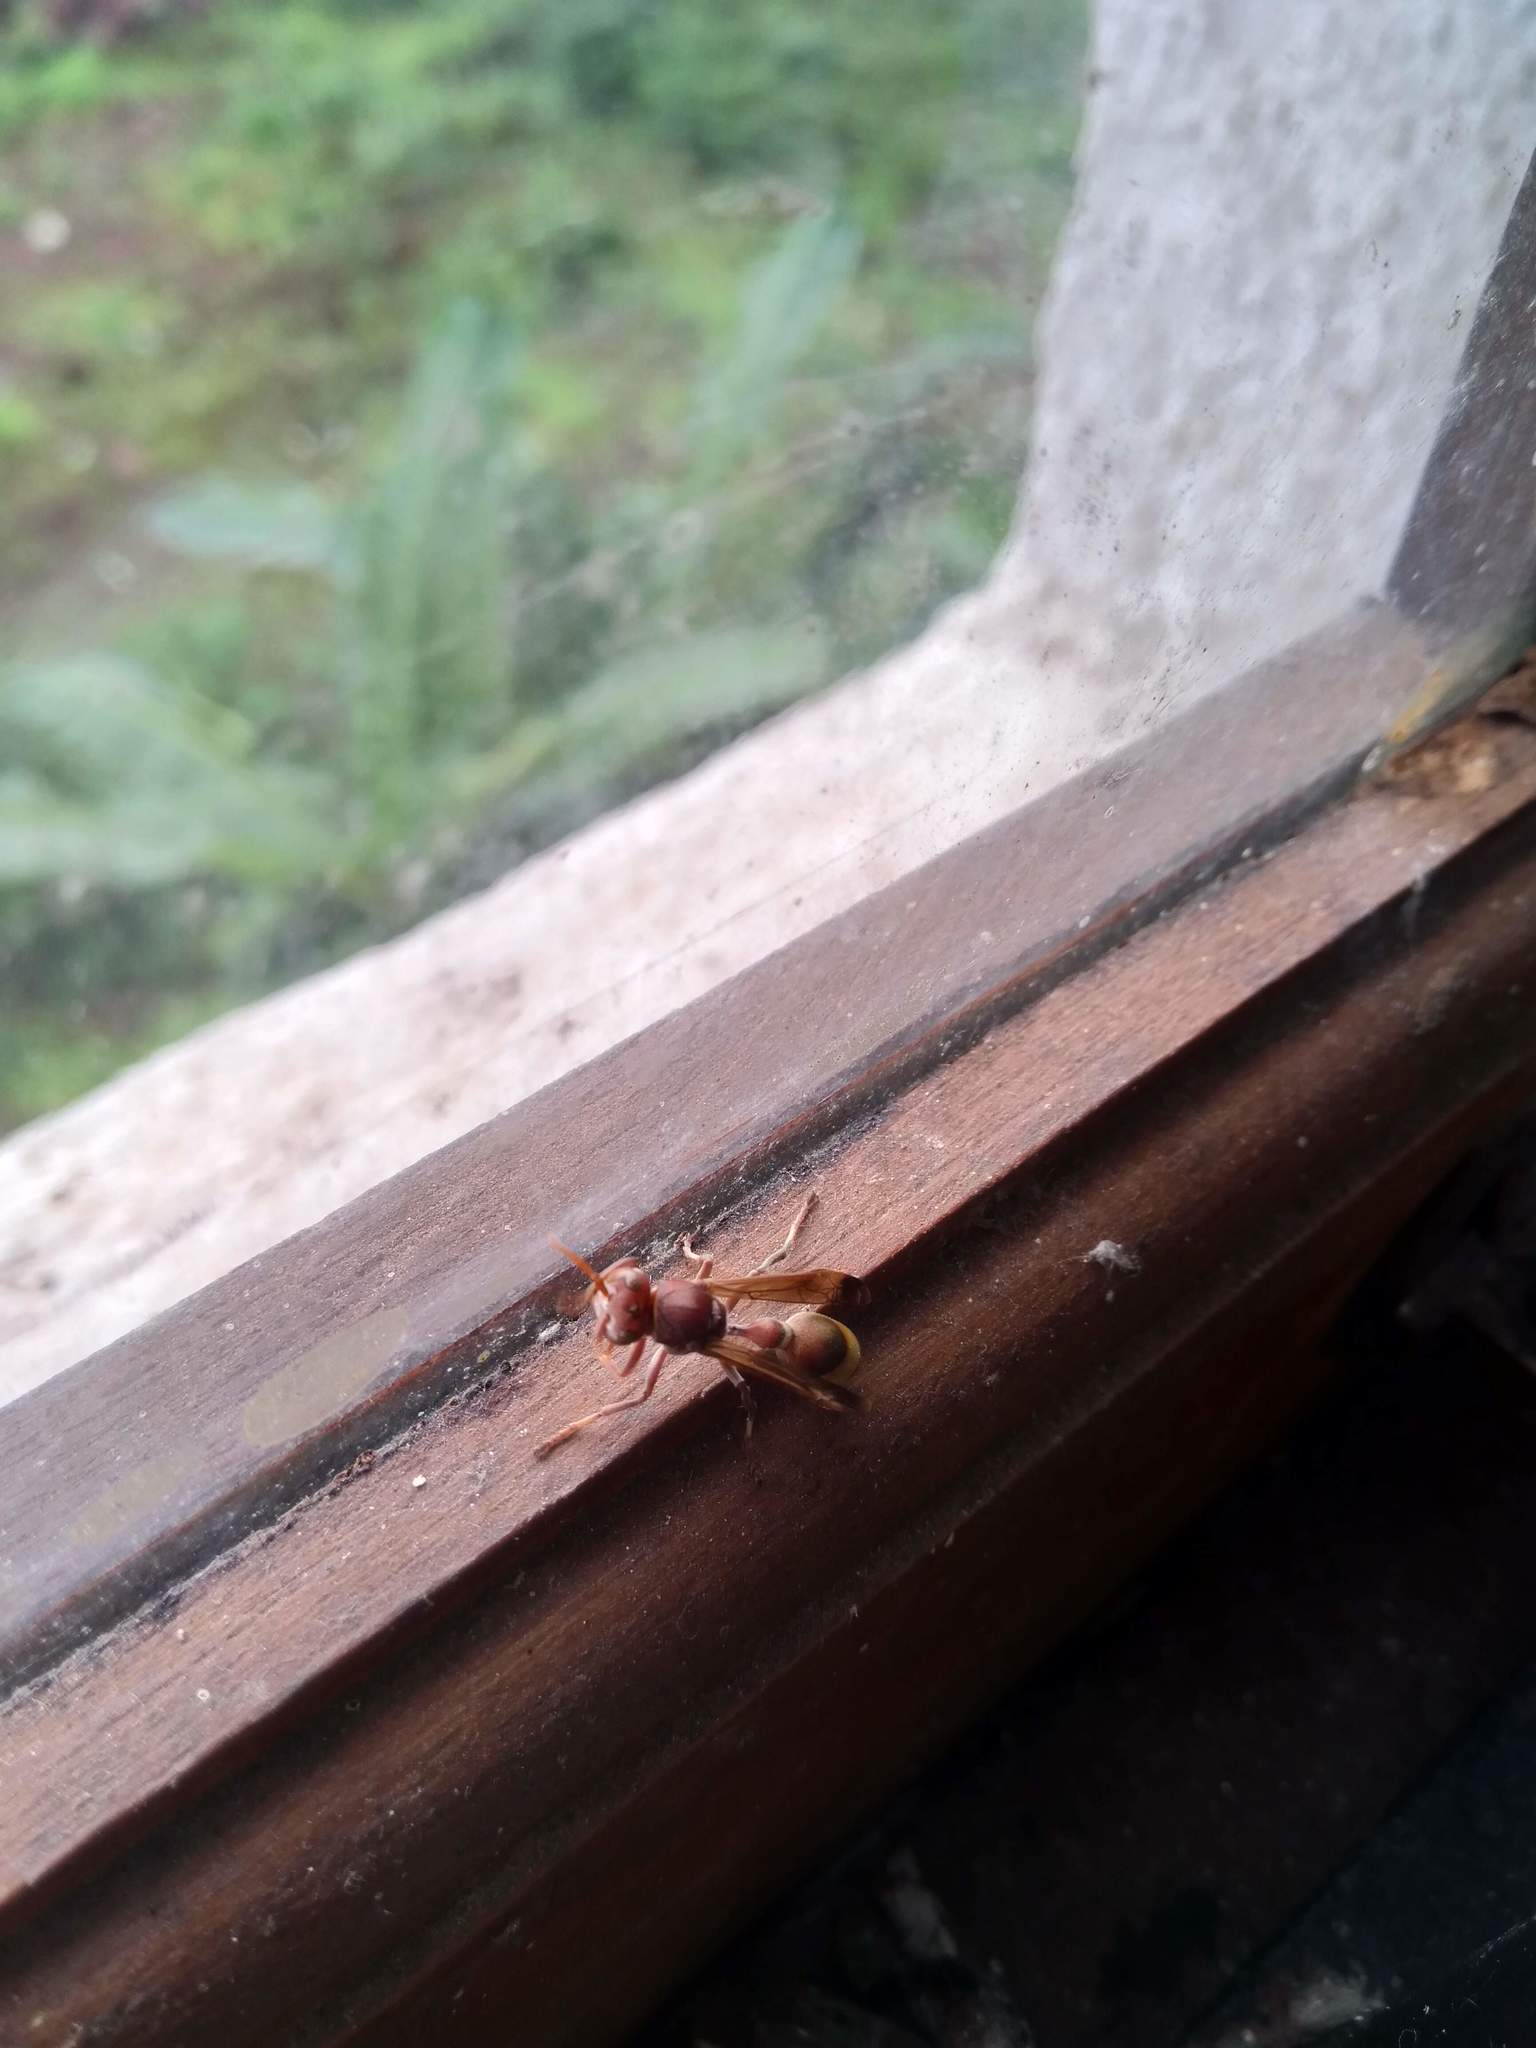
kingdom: Animalia
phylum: Arthropoda
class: Insecta
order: Hymenoptera
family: Vespidae
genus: Ropalidia
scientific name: Ropalidia
